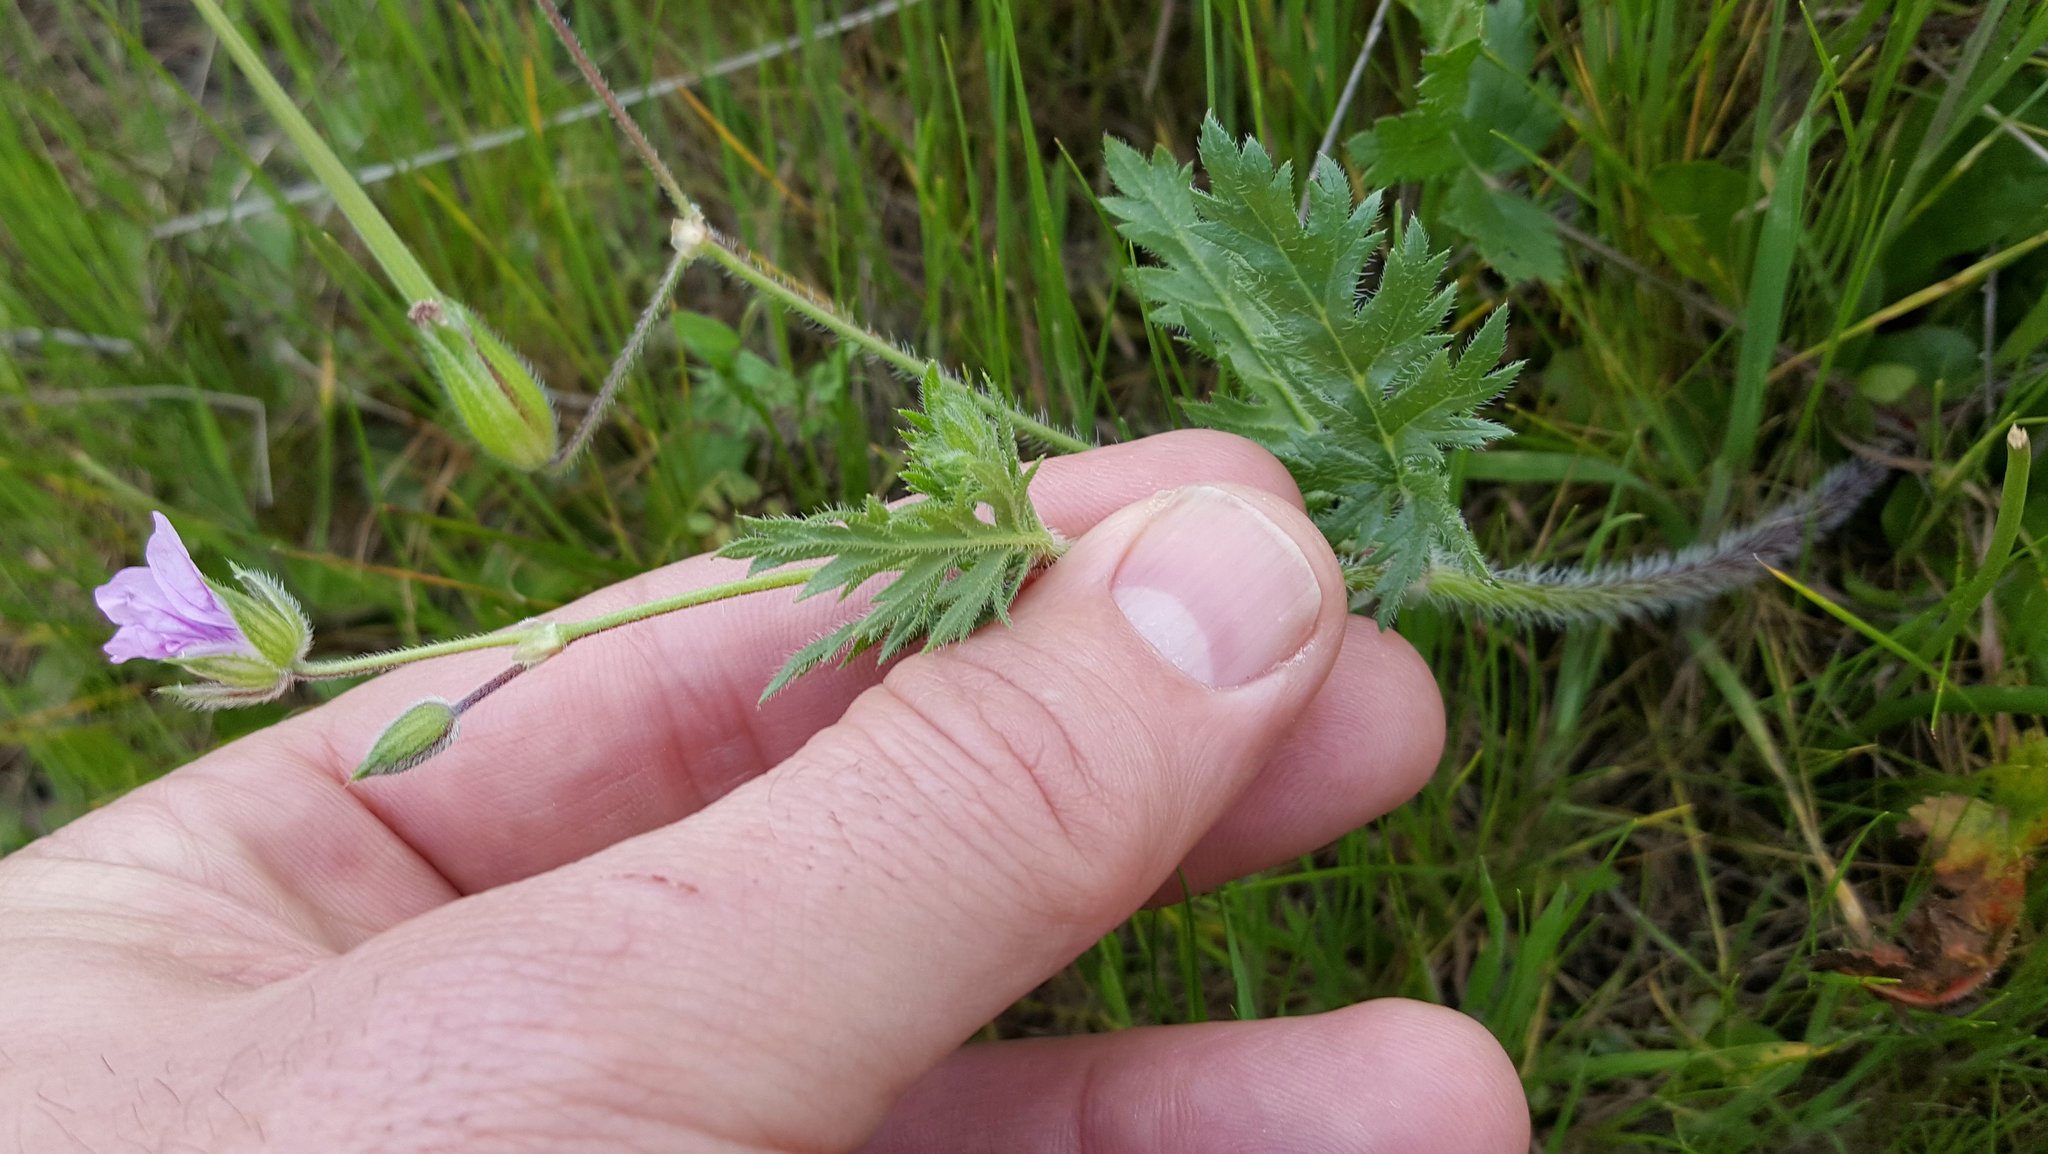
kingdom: Plantae
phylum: Tracheophyta
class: Magnoliopsida
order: Geraniales
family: Geraniaceae
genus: Erodium
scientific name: Erodium botrys
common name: Mediterranean stork's-bill
